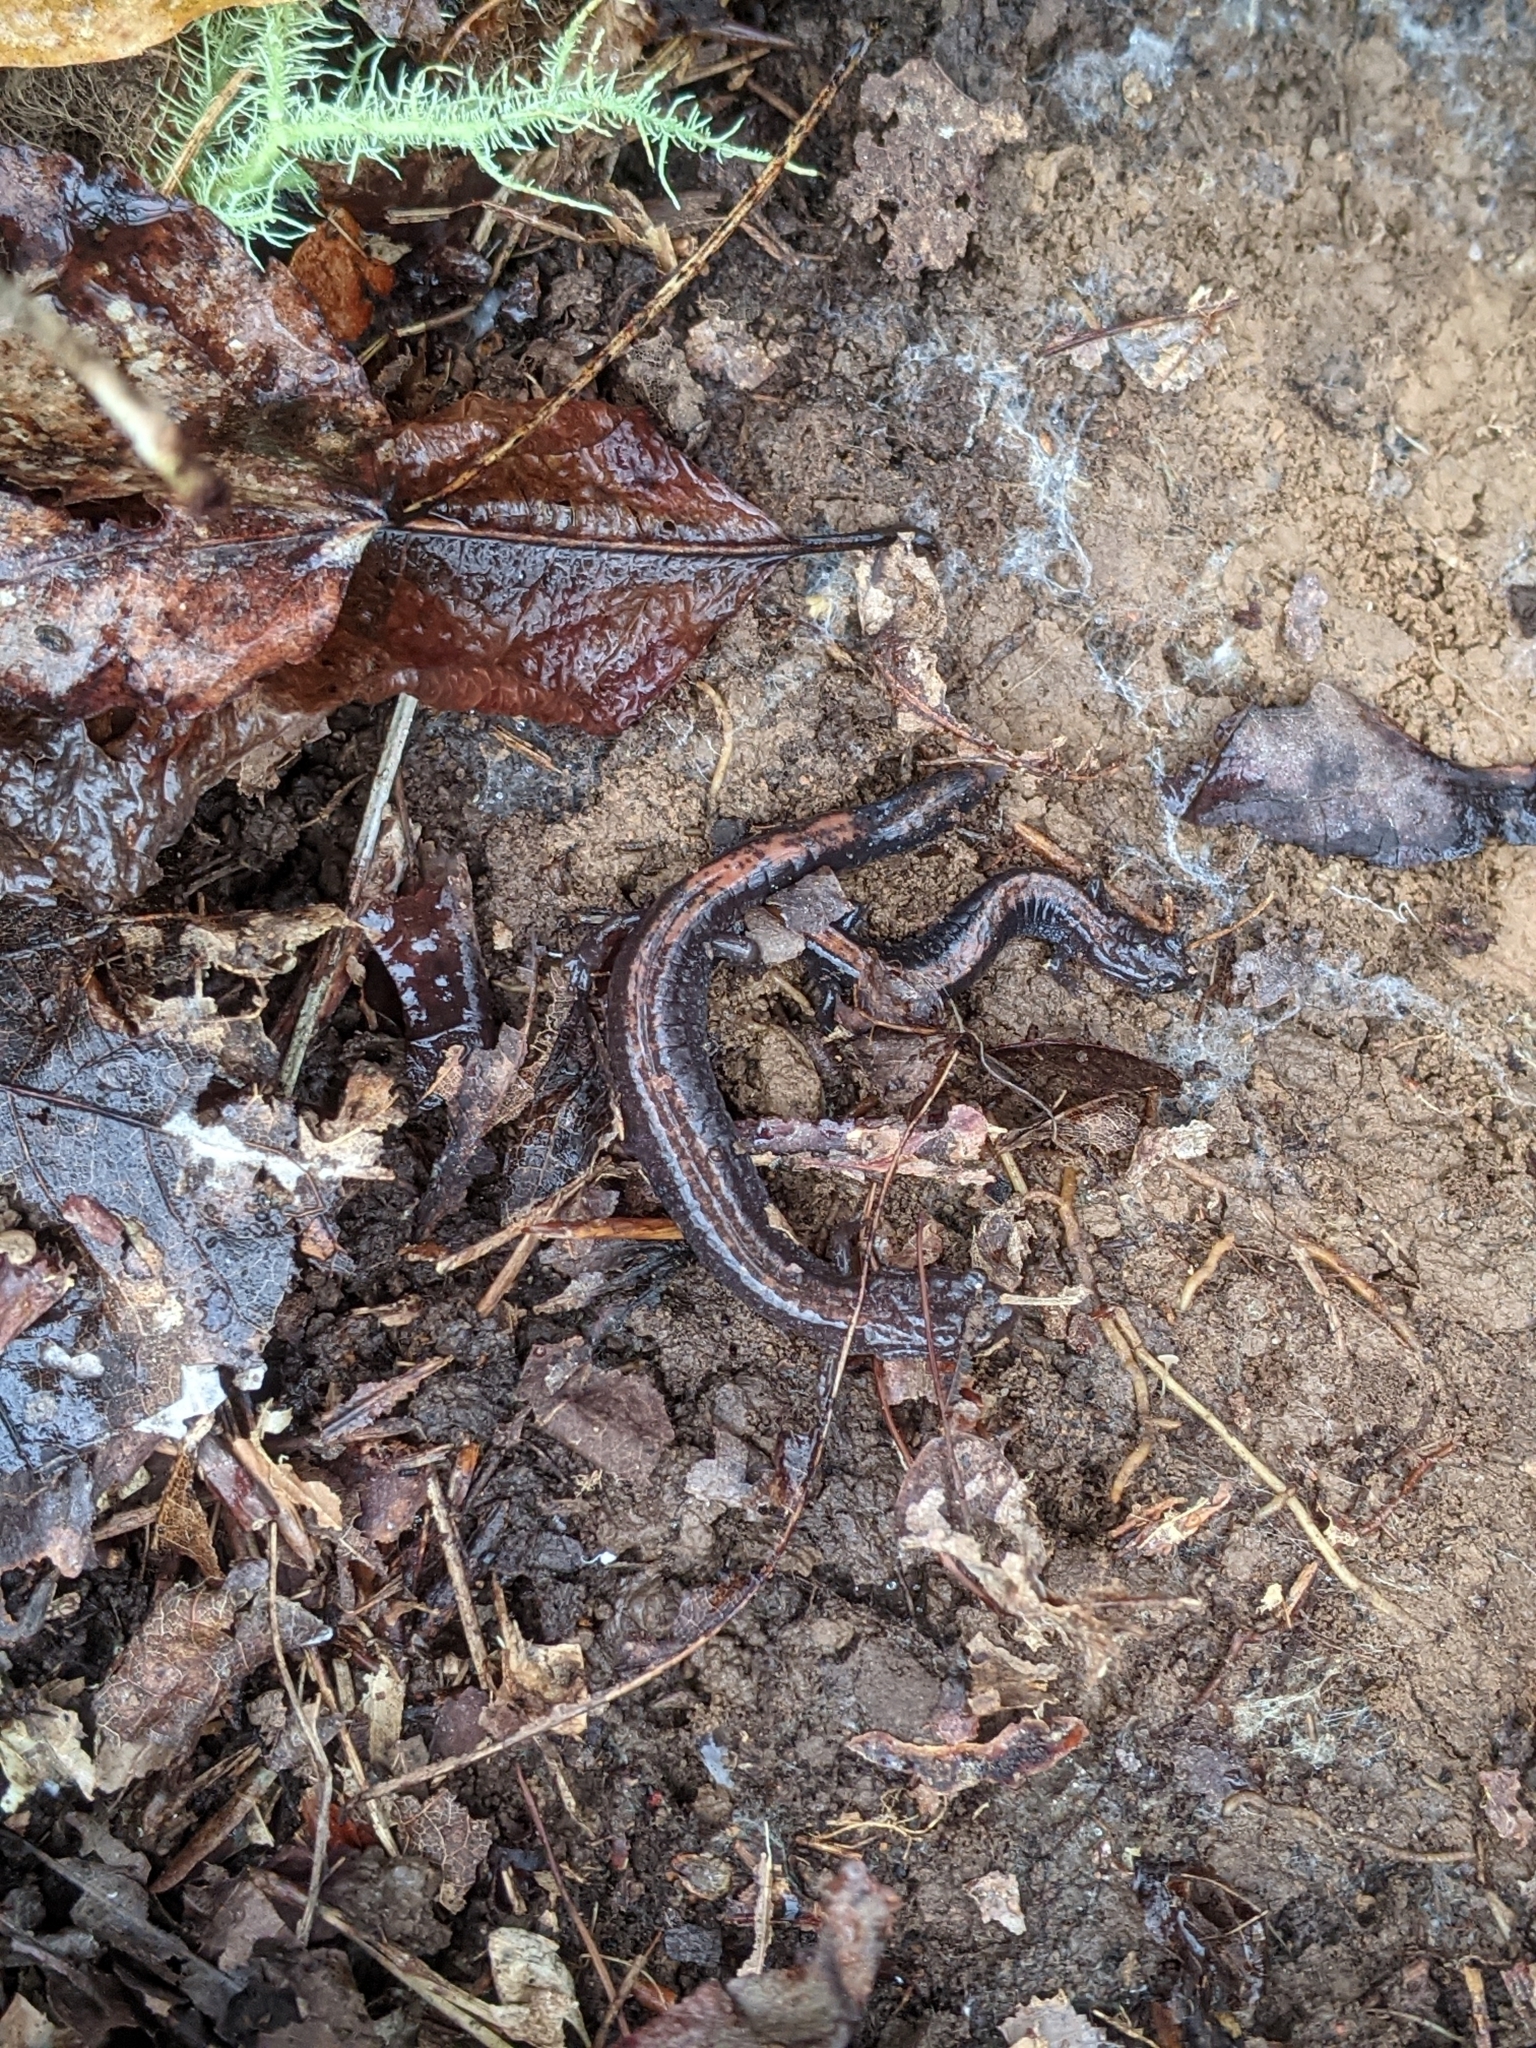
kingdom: Animalia
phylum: Chordata
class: Amphibia
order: Caudata
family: Plethodontidae
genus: Plethodon
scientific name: Plethodon cinereus
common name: Redback salamander
